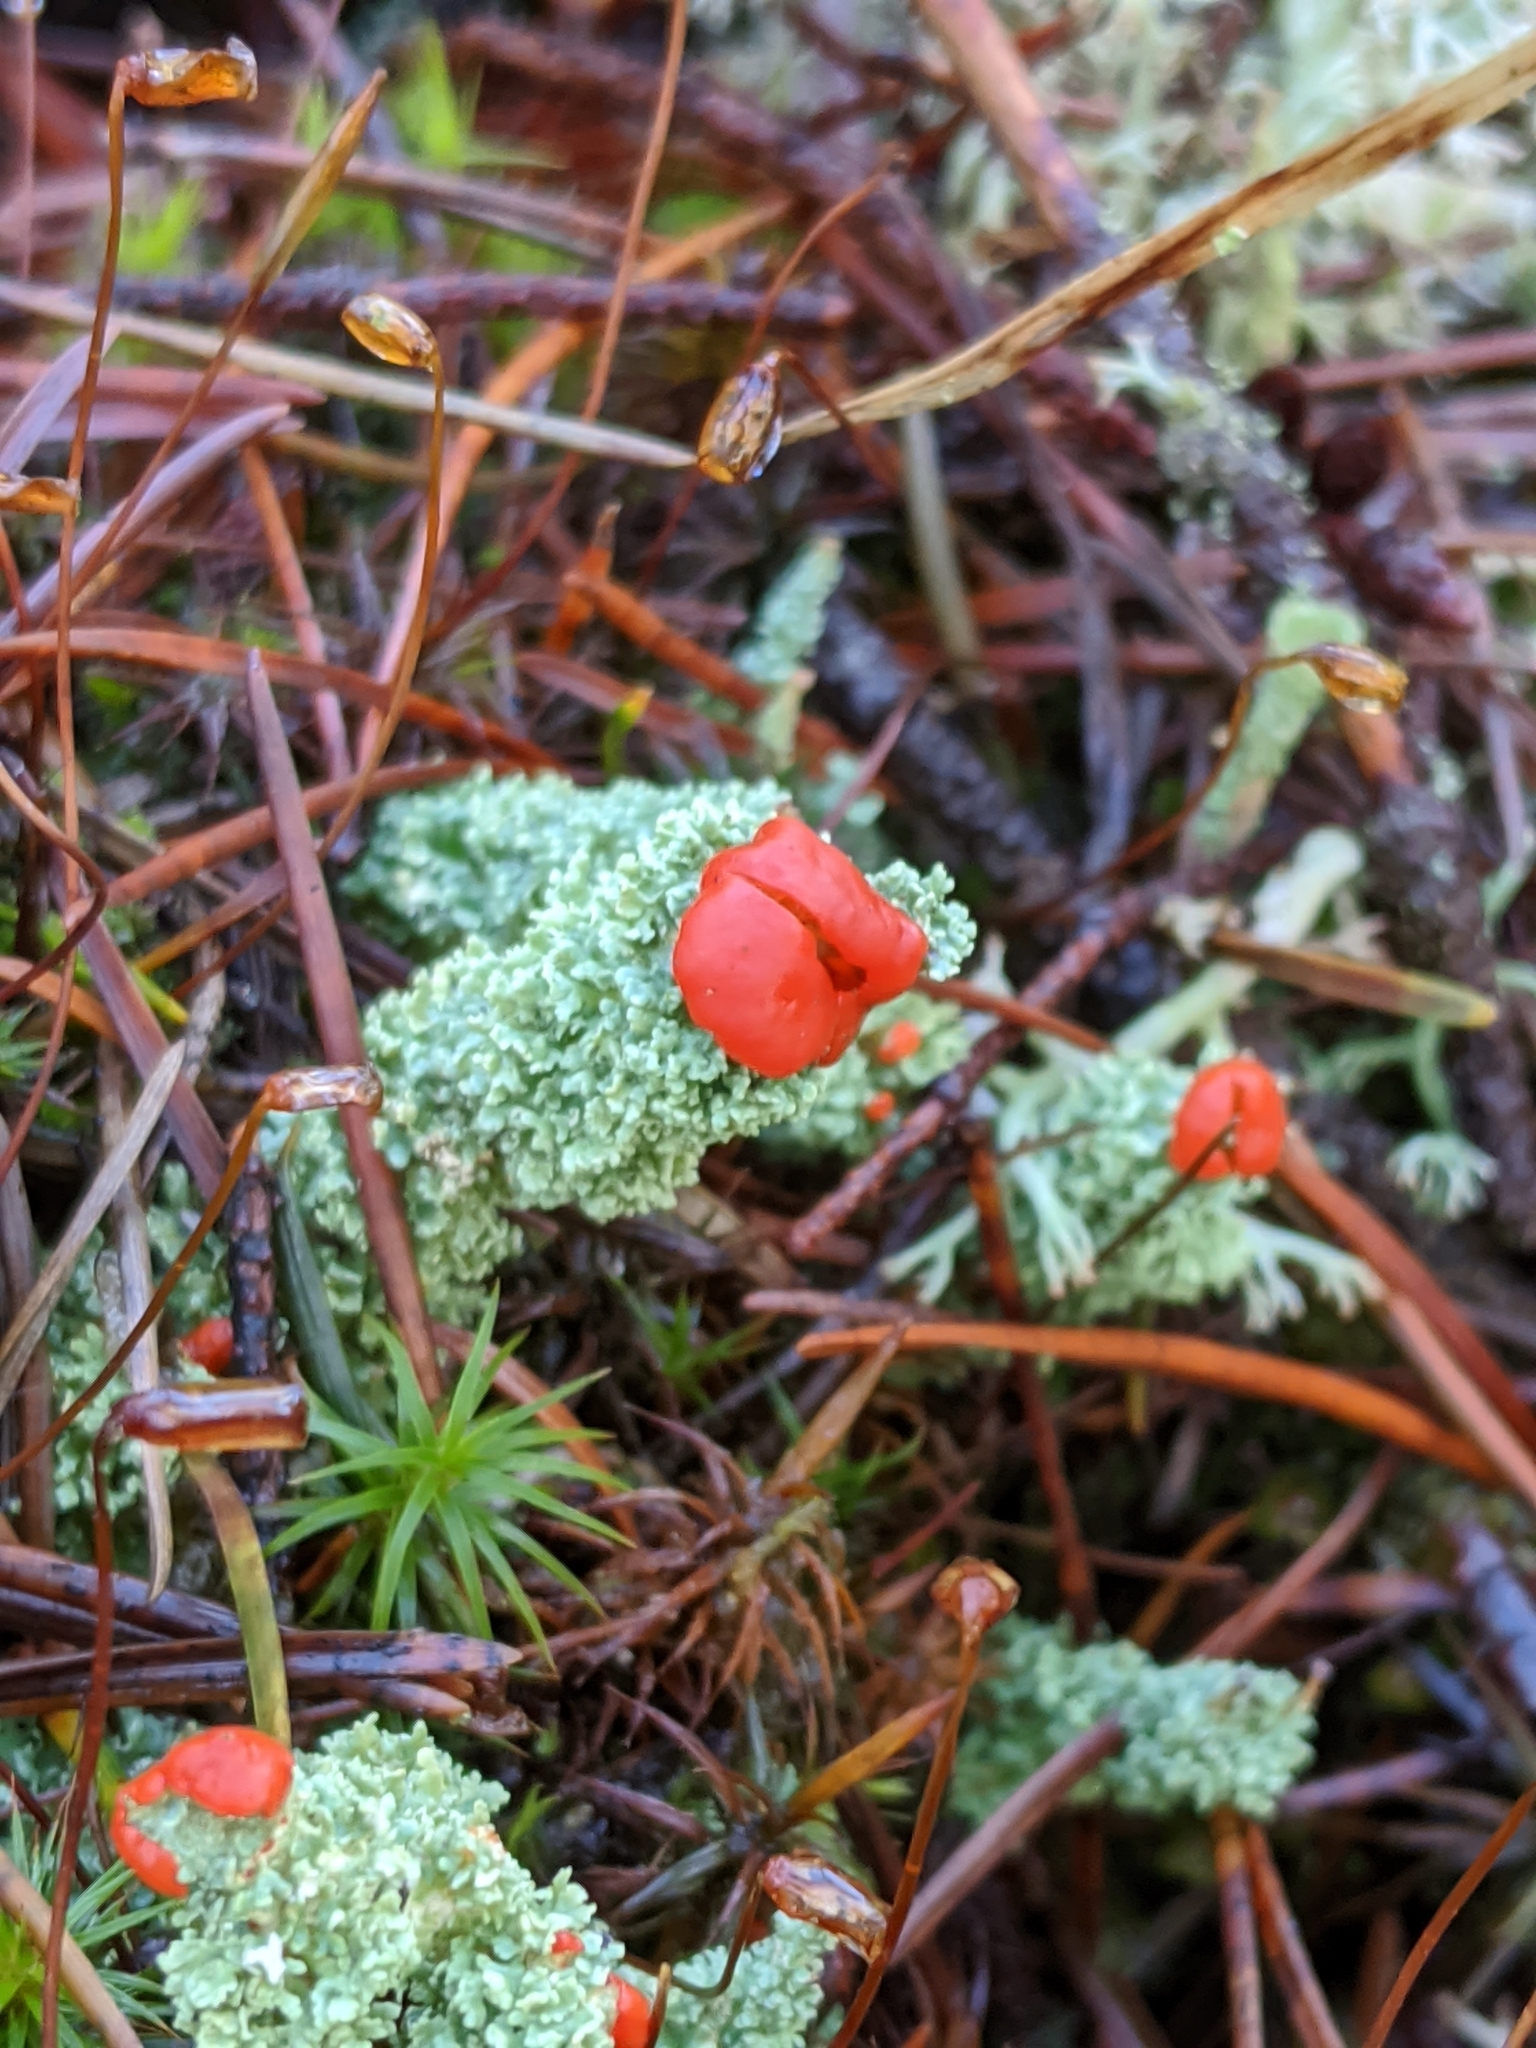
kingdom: Fungi
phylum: Ascomycota
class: Lecanoromycetes
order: Lecanorales
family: Cladoniaceae
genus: Cladonia
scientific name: Cladonia bellidiflora
